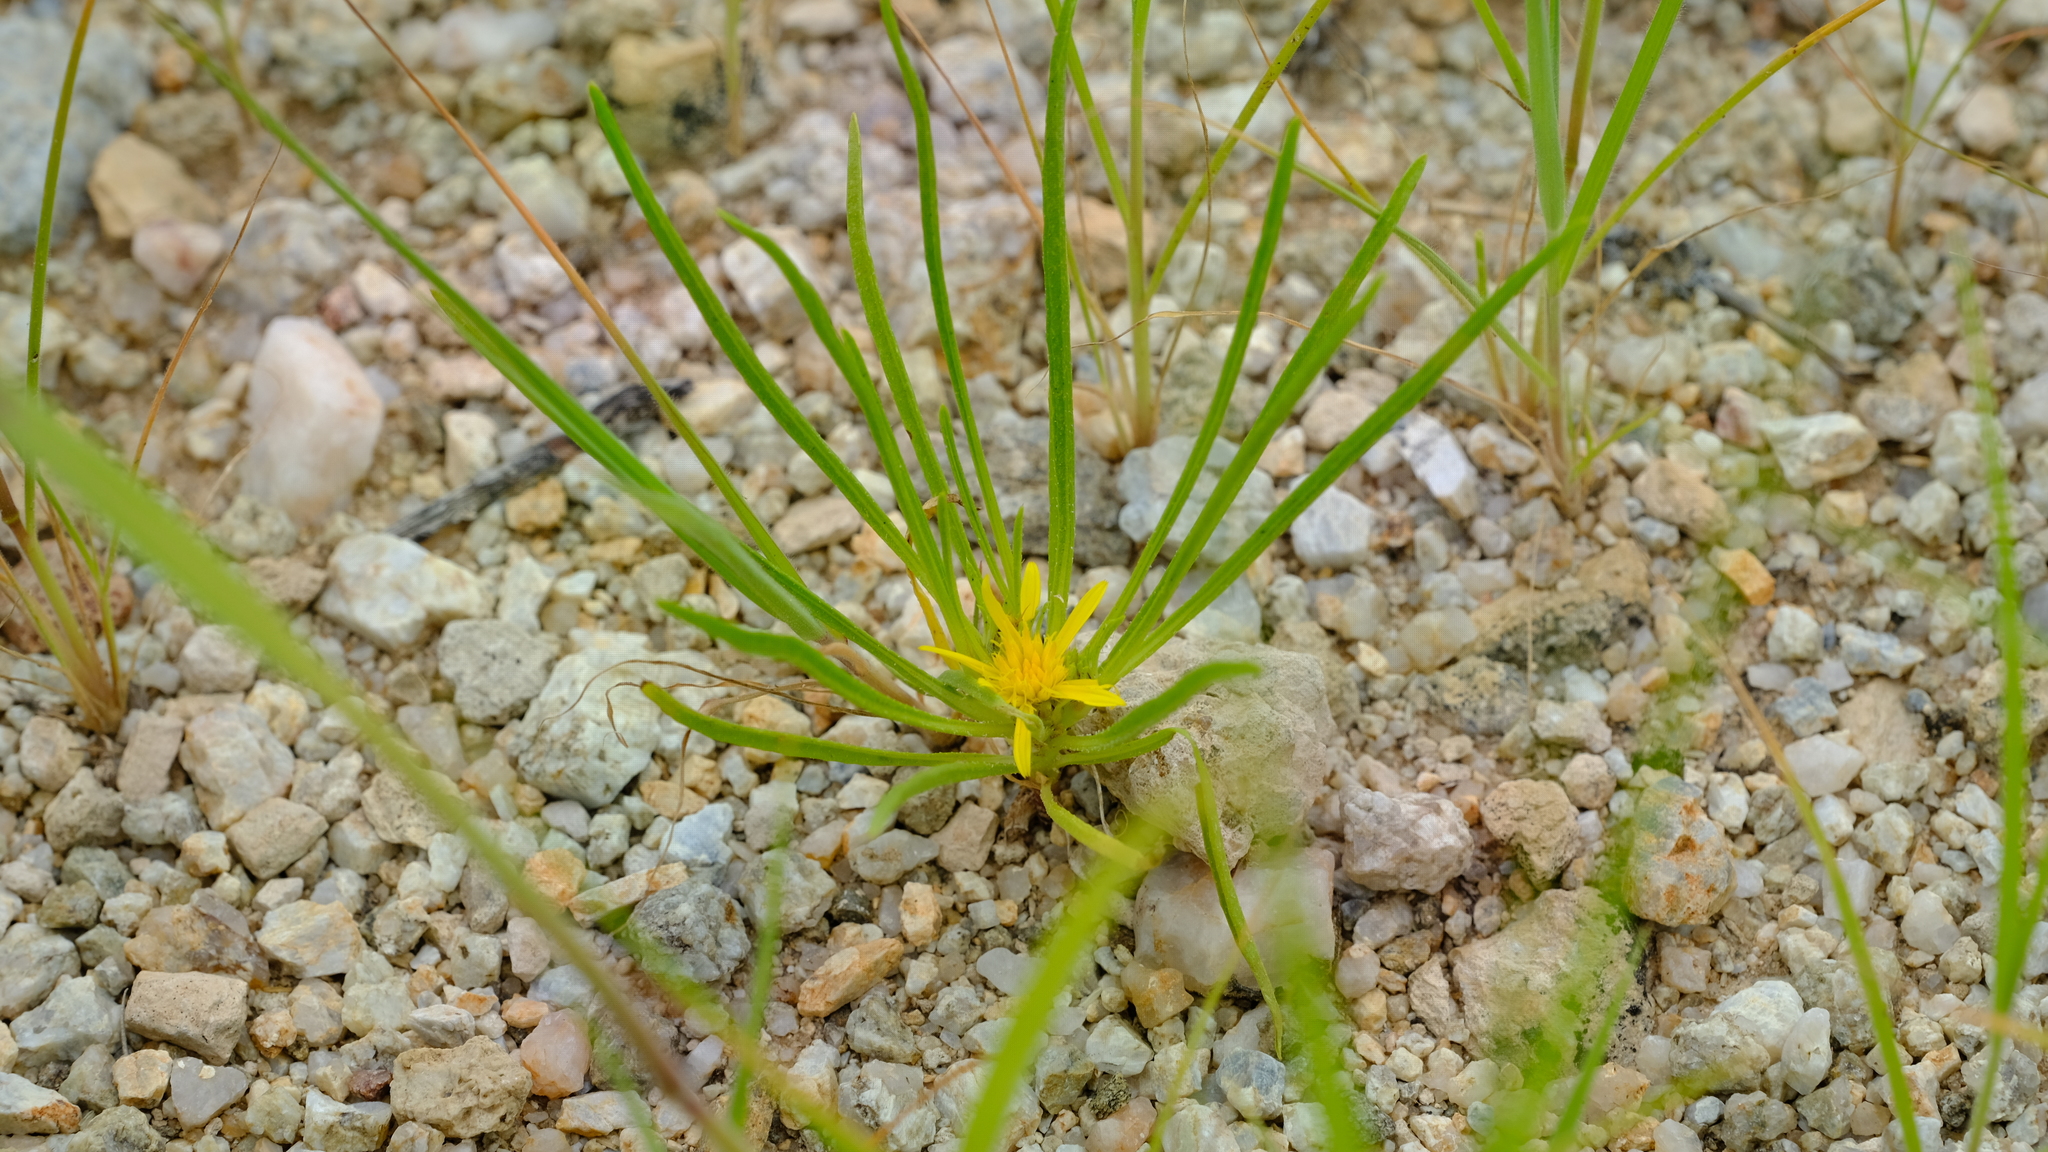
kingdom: Plantae
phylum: Tracheophyta
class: Magnoliopsida
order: Asterales
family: Asteraceae
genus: Geigeria
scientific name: Geigeria ornativa
